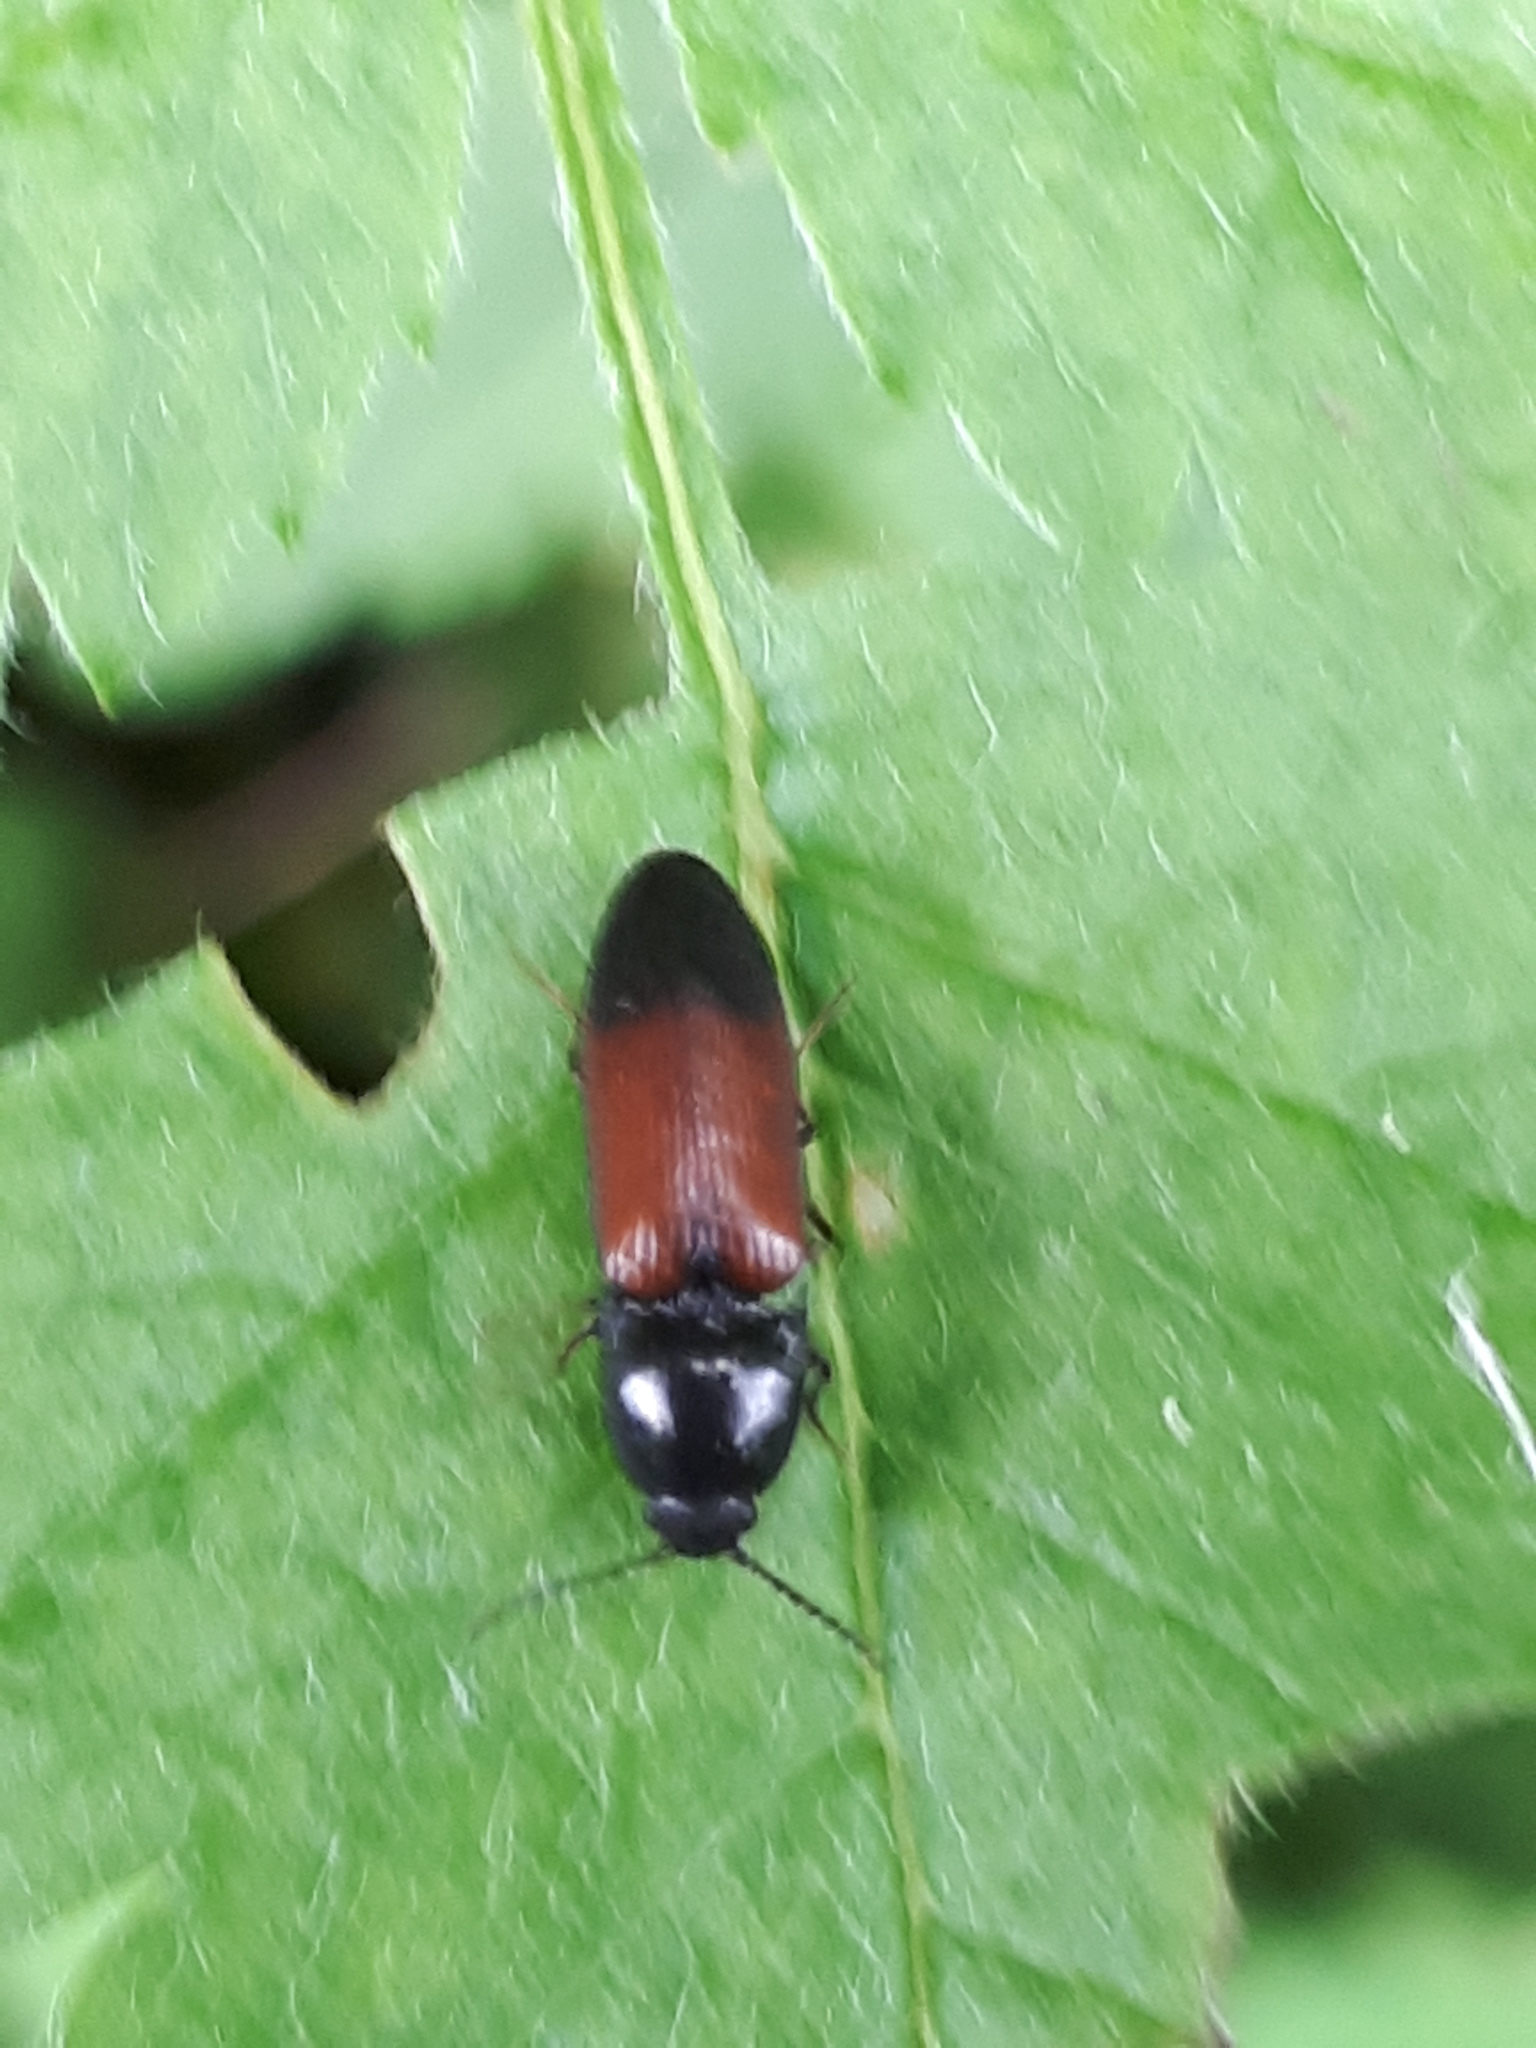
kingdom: Animalia
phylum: Arthropoda
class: Insecta
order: Coleoptera
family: Elateridae
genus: Ampedus
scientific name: Ampedus balteatus
